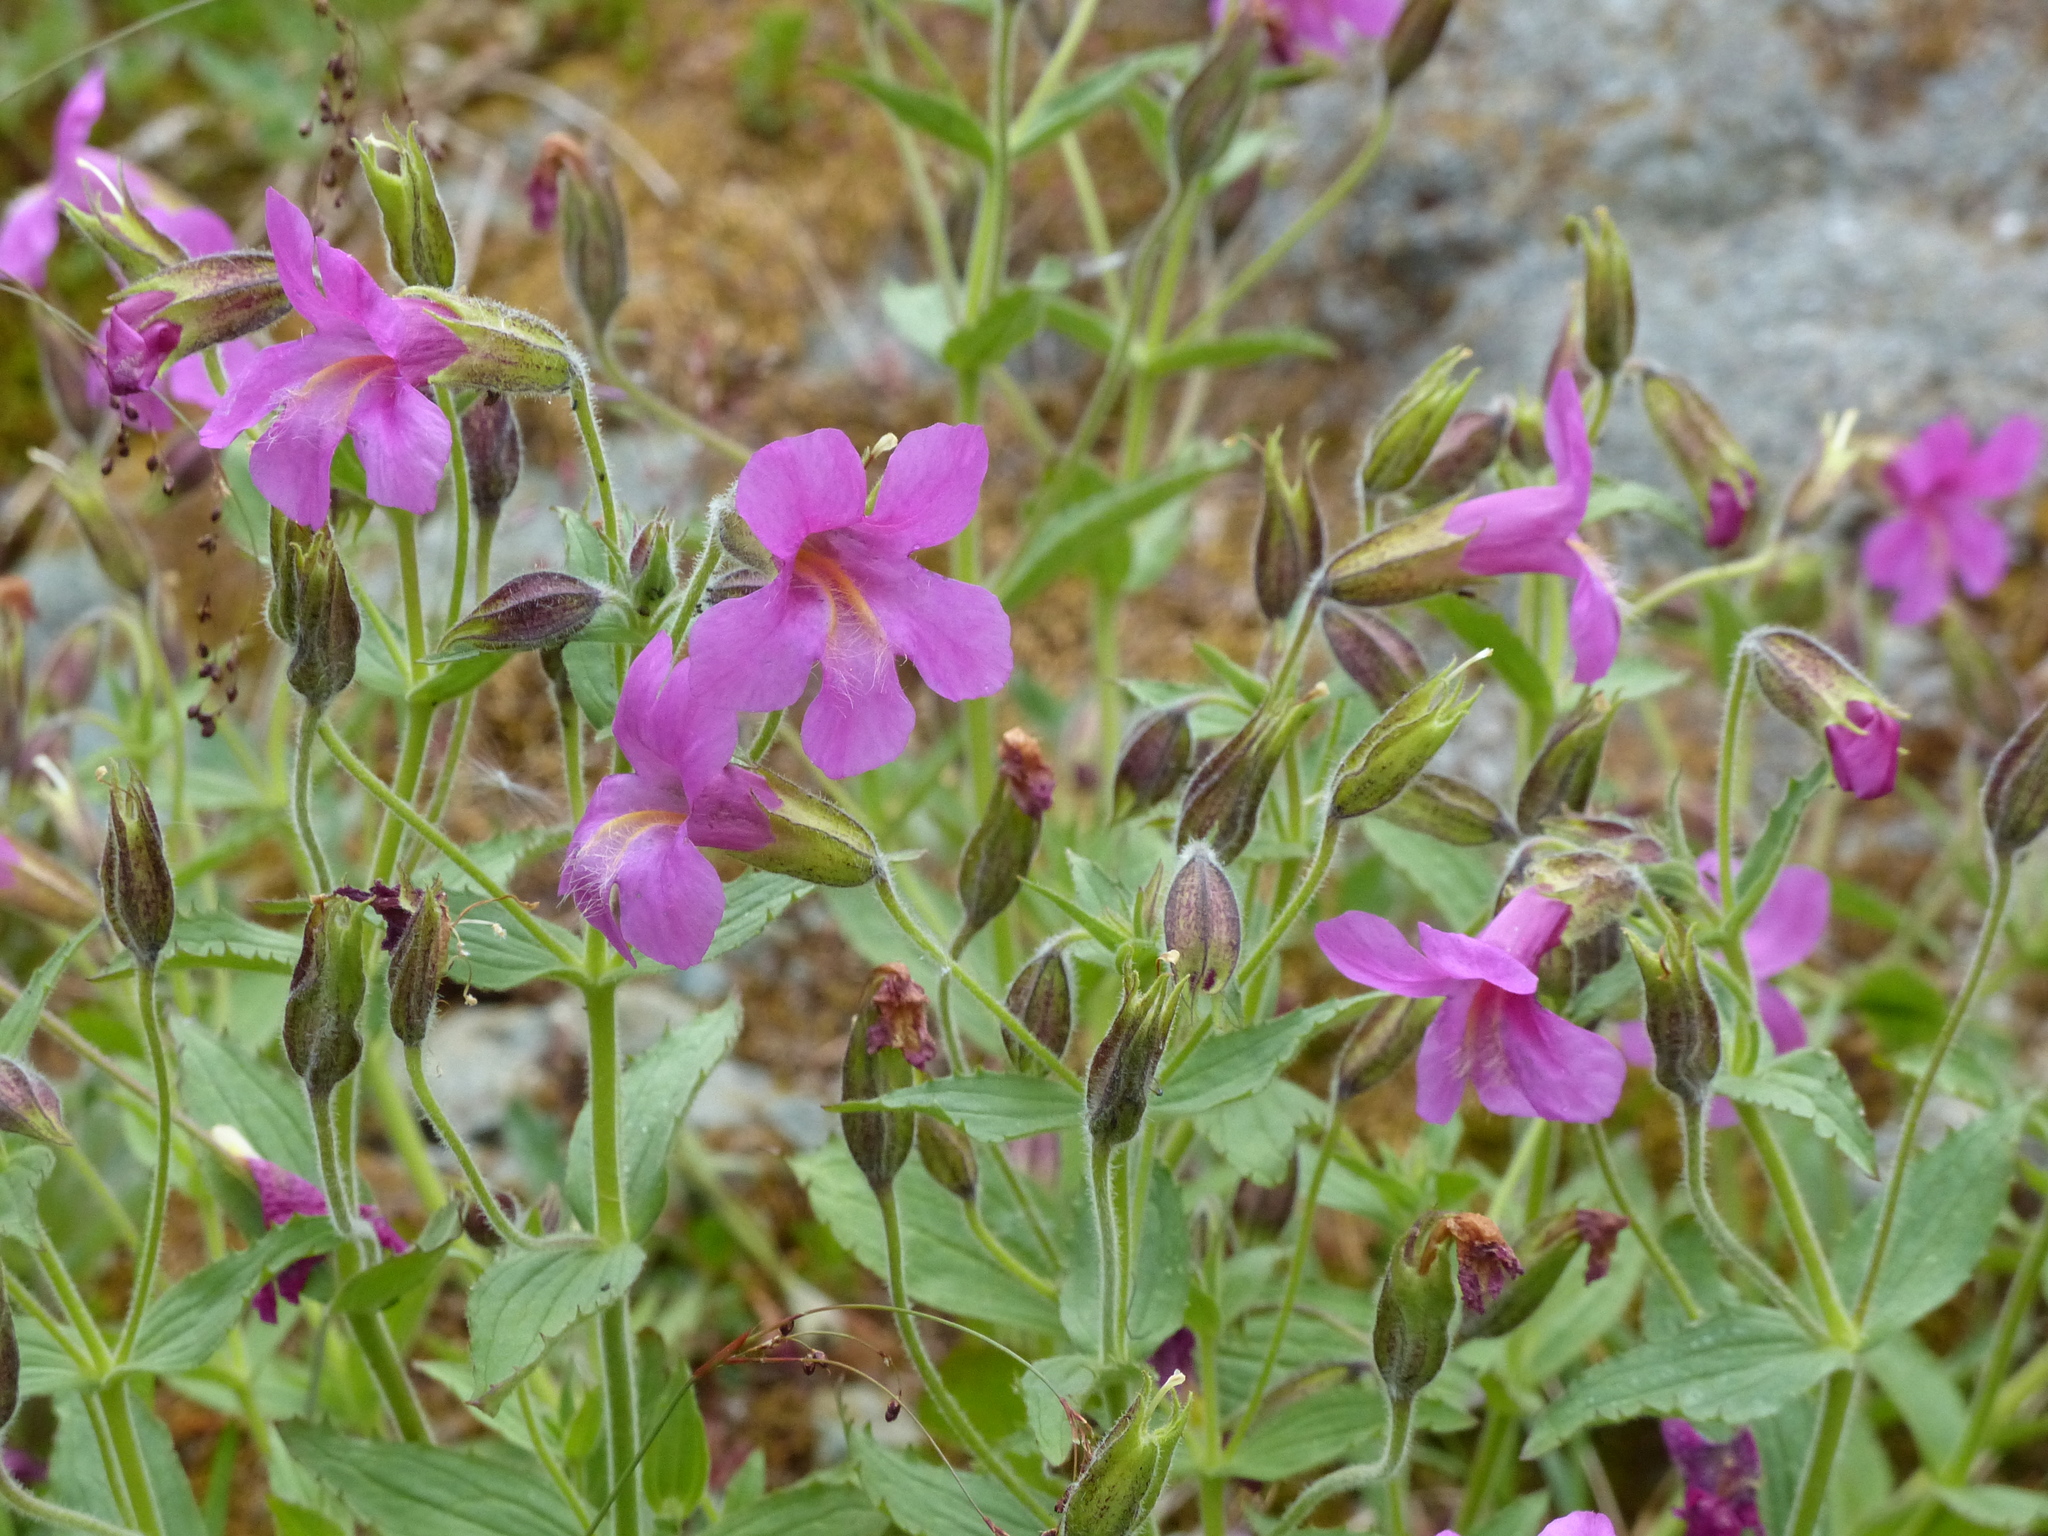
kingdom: Plantae
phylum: Tracheophyta
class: Magnoliopsida
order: Lamiales
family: Phrymaceae
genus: Erythranthe
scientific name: Erythranthe lewisii
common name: Lewis's monkey-flower
